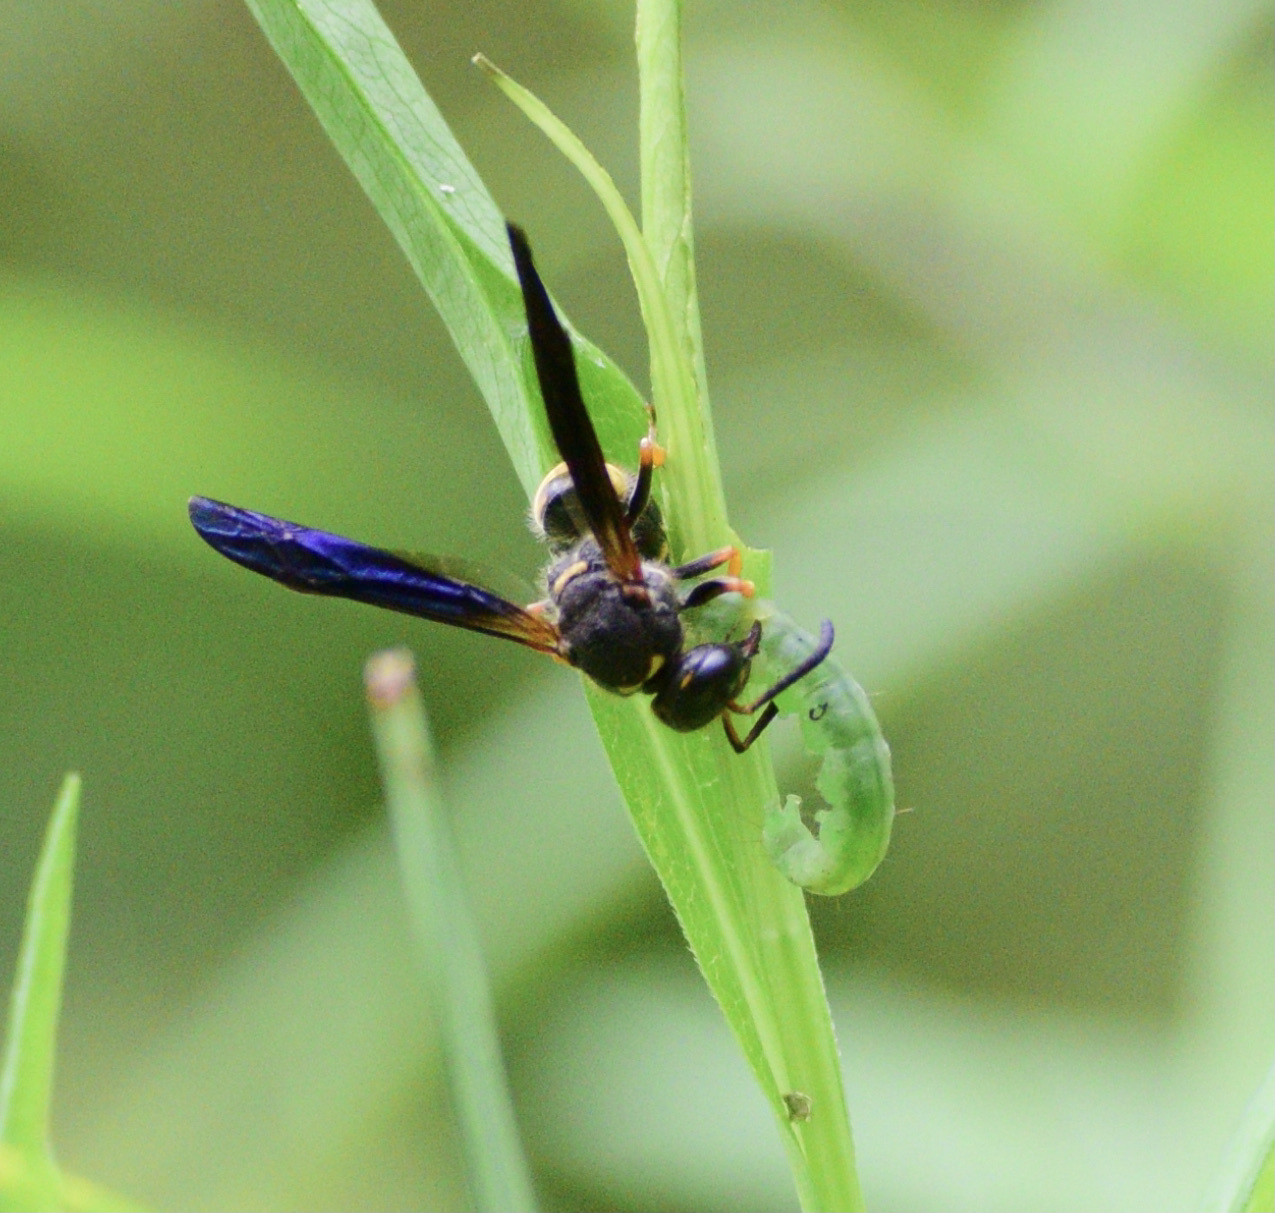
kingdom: Animalia
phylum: Arthropoda
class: Insecta
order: Hymenoptera
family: Vespidae
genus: Ancistrocerus
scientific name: Ancistrocerus unifasciatus
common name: One-banded mason wasp
